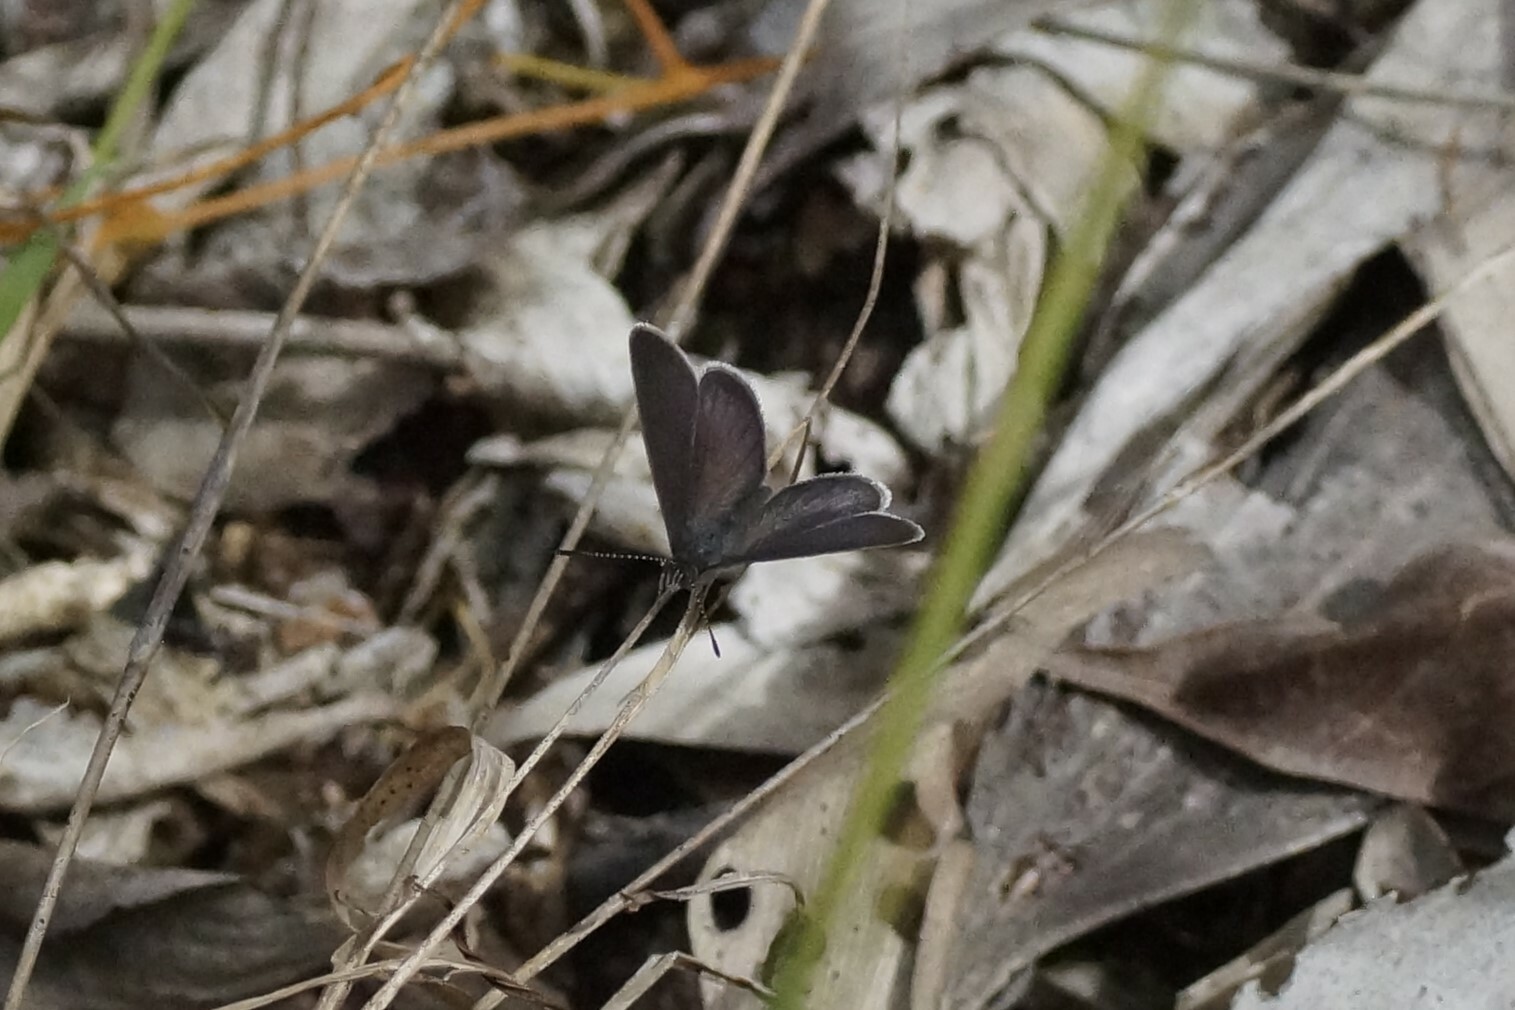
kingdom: Animalia
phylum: Arthropoda
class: Insecta
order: Lepidoptera
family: Lycaenidae
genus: Candalides
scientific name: Candalides
